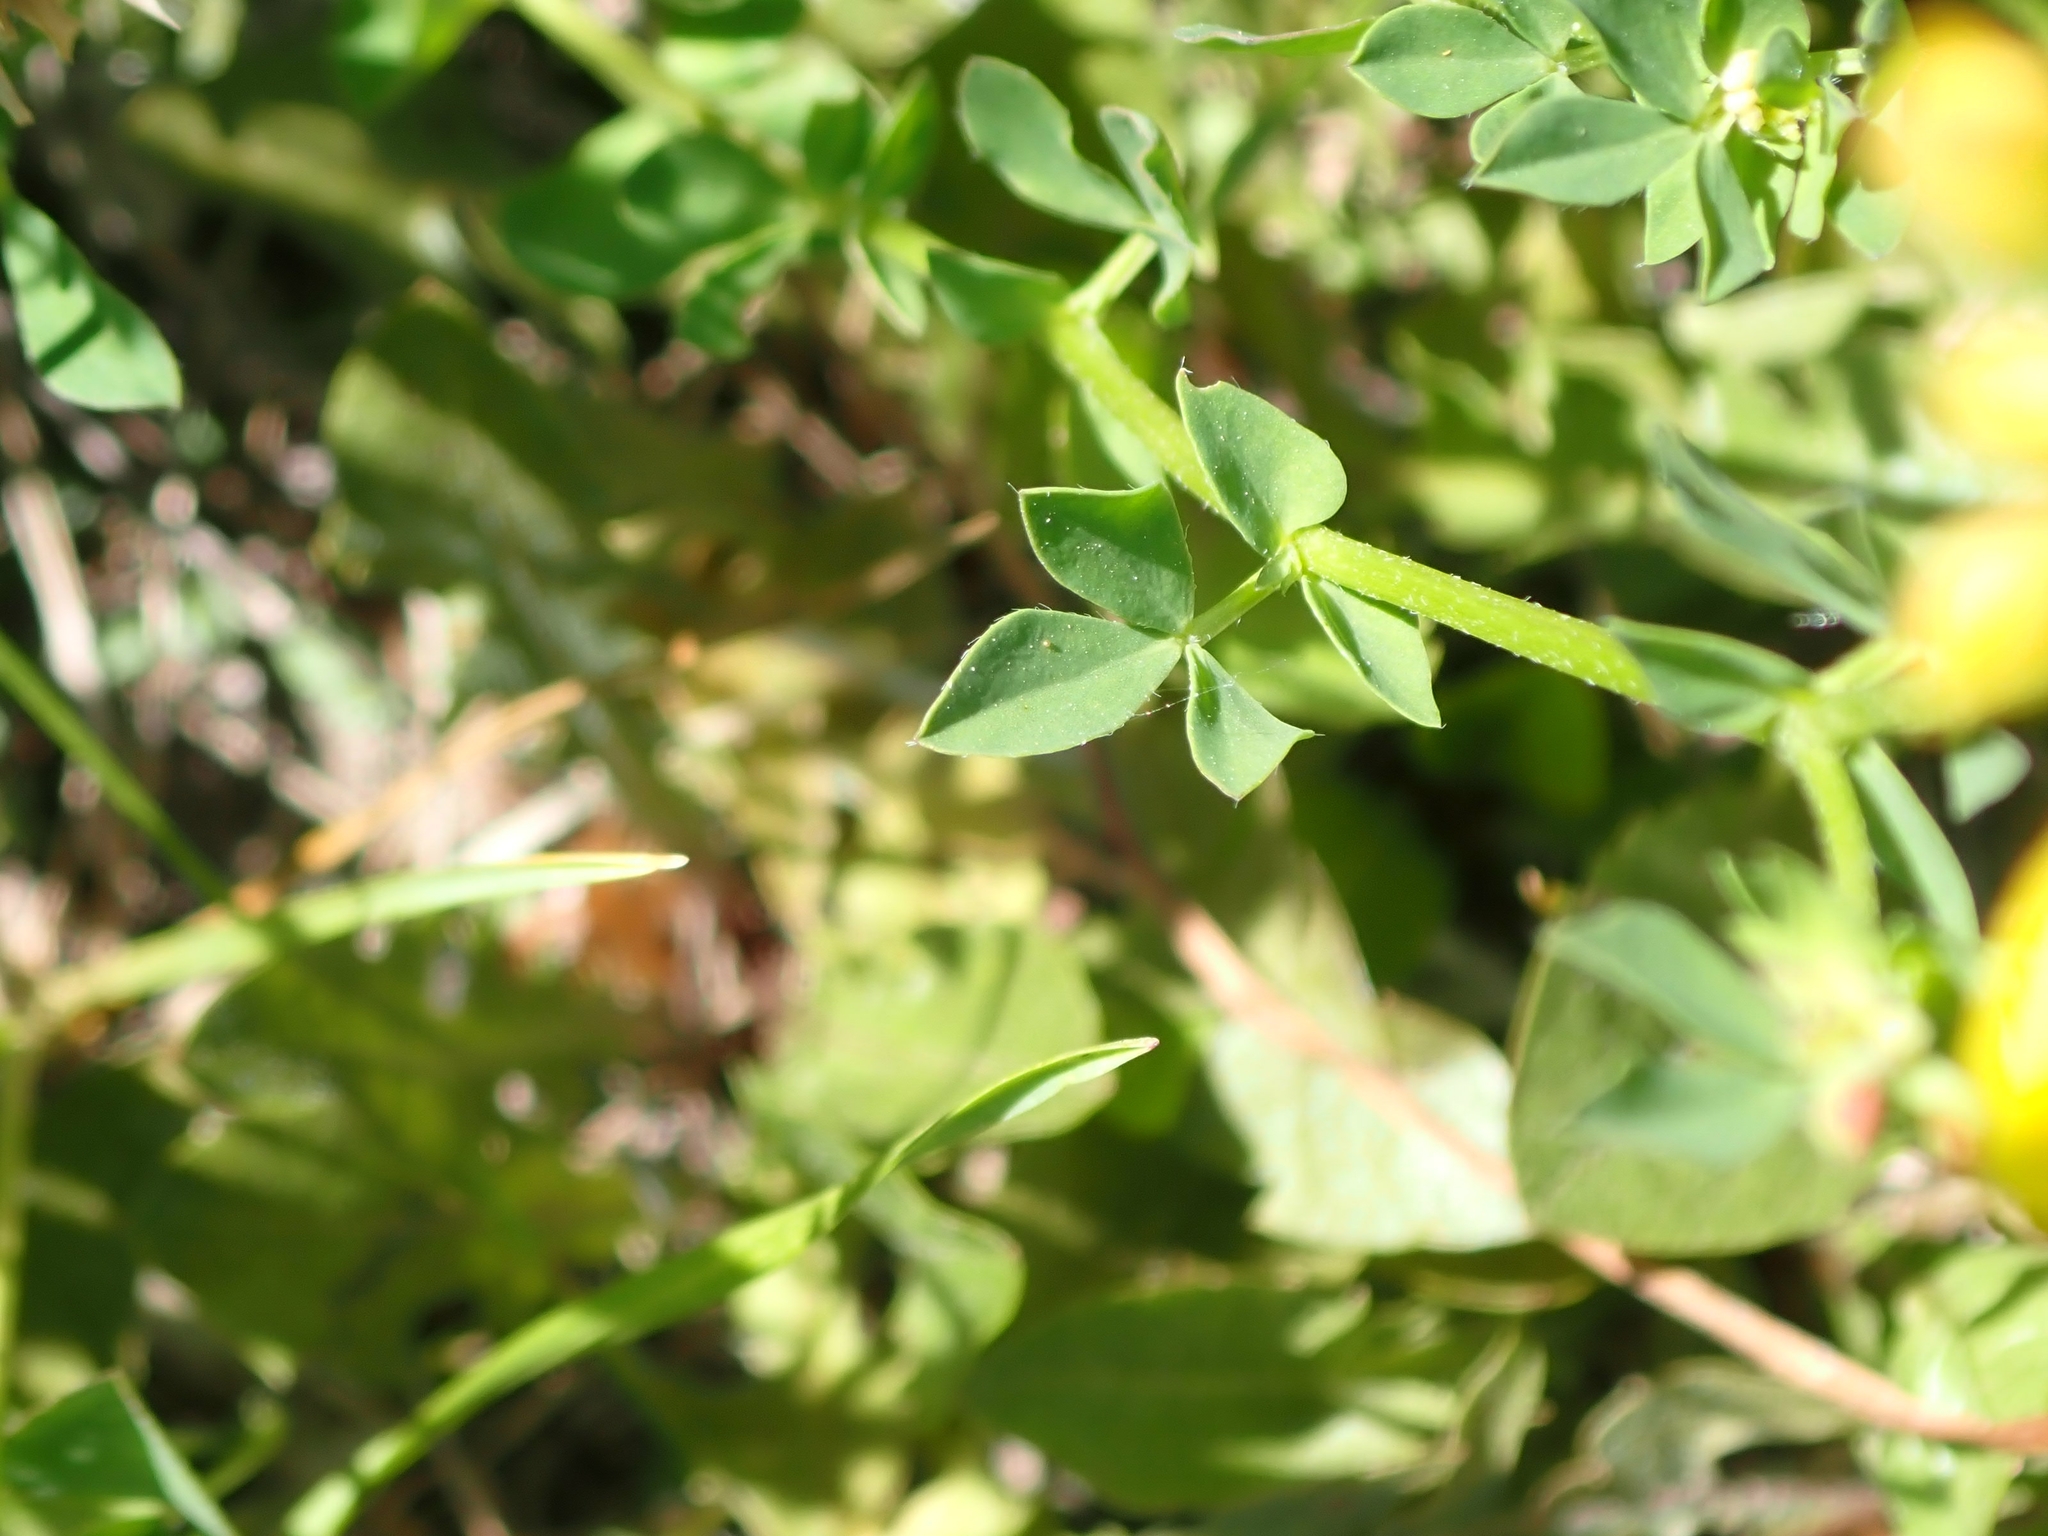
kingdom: Plantae
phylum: Tracheophyta
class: Magnoliopsida
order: Fabales
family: Fabaceae
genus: Lotus
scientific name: Lotus corniculatus
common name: Common bird's-foot-trefoil
